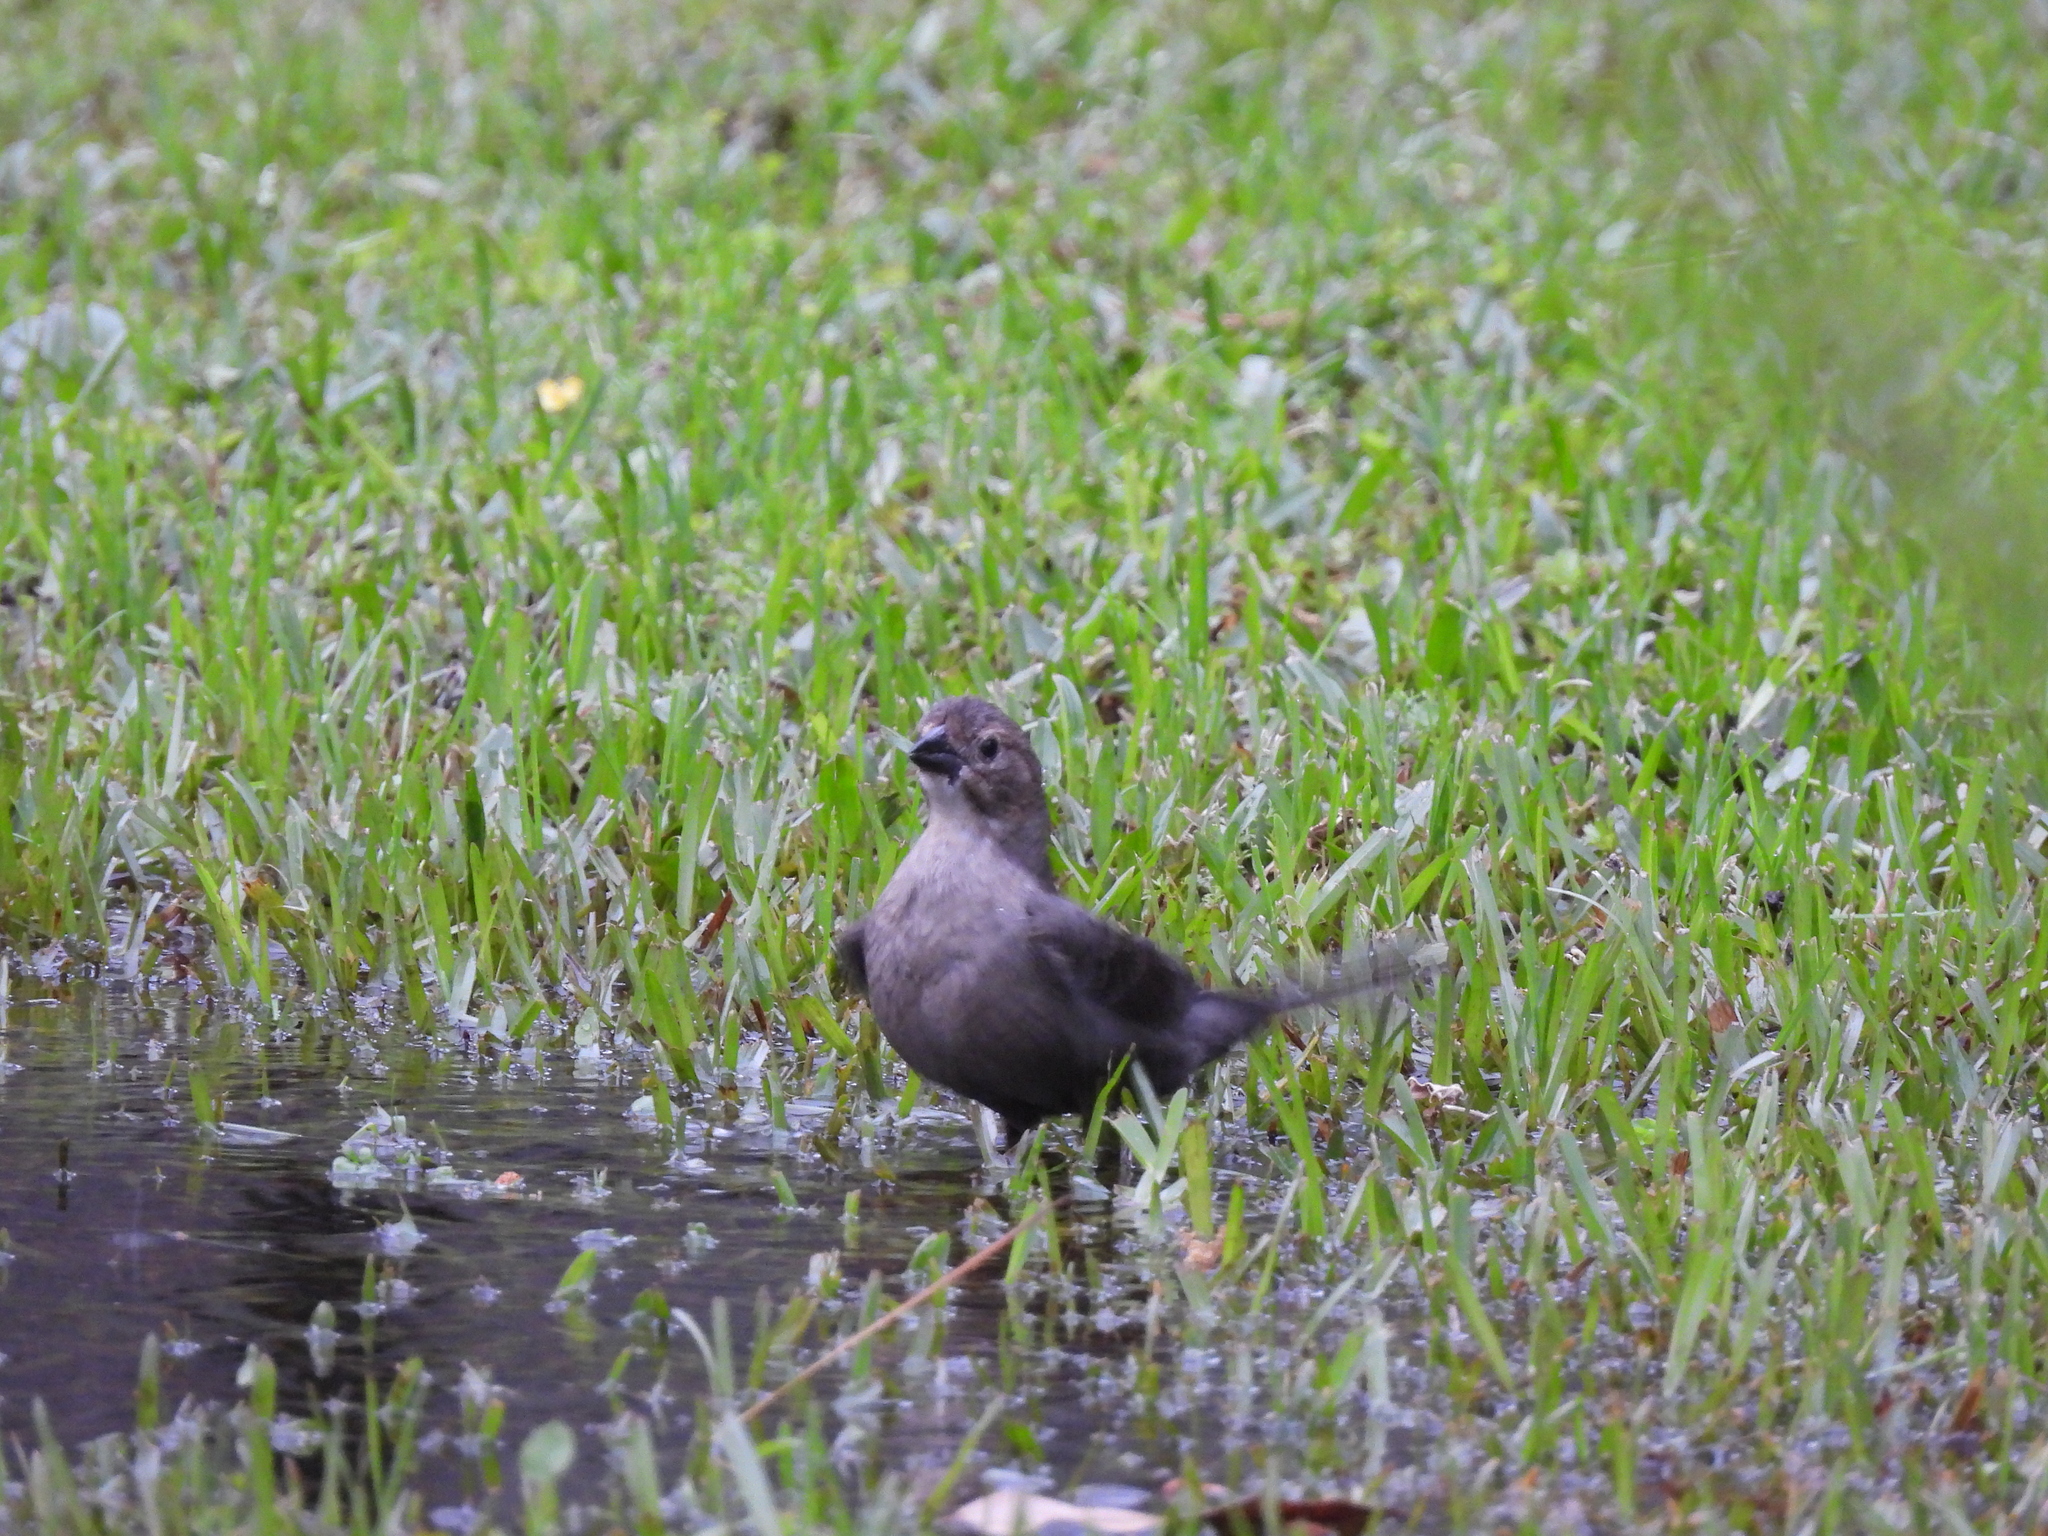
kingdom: Animalia
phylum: Chordata
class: Aves
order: Passeriformes
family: Icteridae
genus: Molothrus
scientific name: Molothrus ater
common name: Brown-headed cowbird
